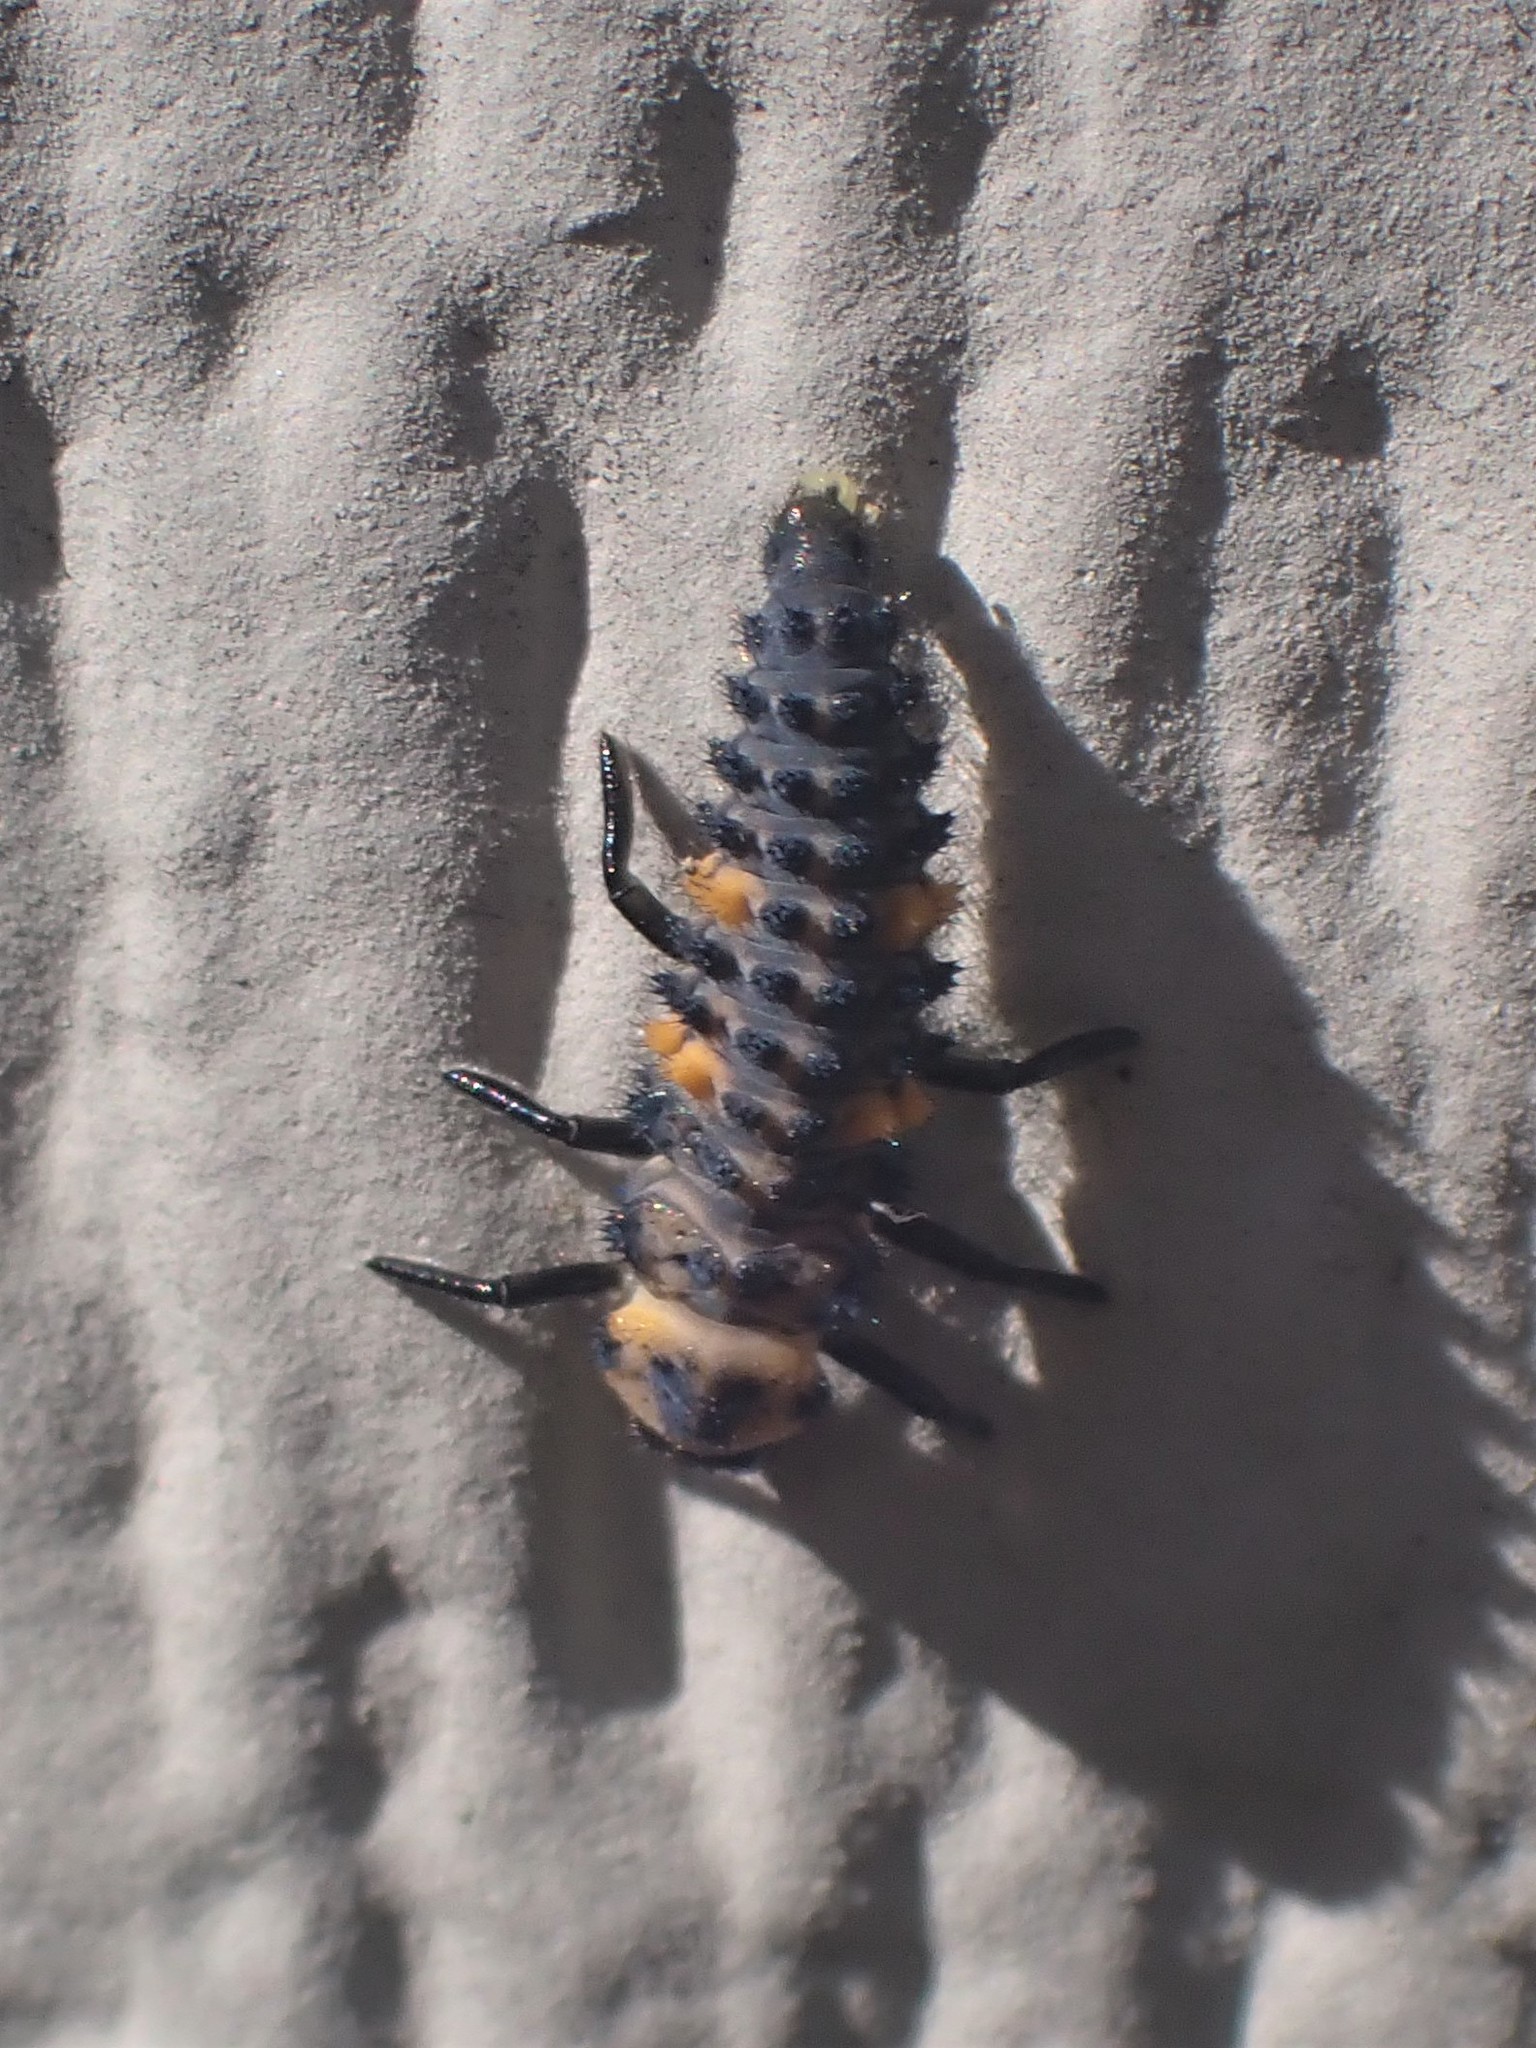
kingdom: Animalia
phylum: Arthropoda
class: Insecta
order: Coleoptera
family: Coccinellidae
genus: Coccinella
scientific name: Coccinella septempunctata
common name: Sevenspotted lady beetle
